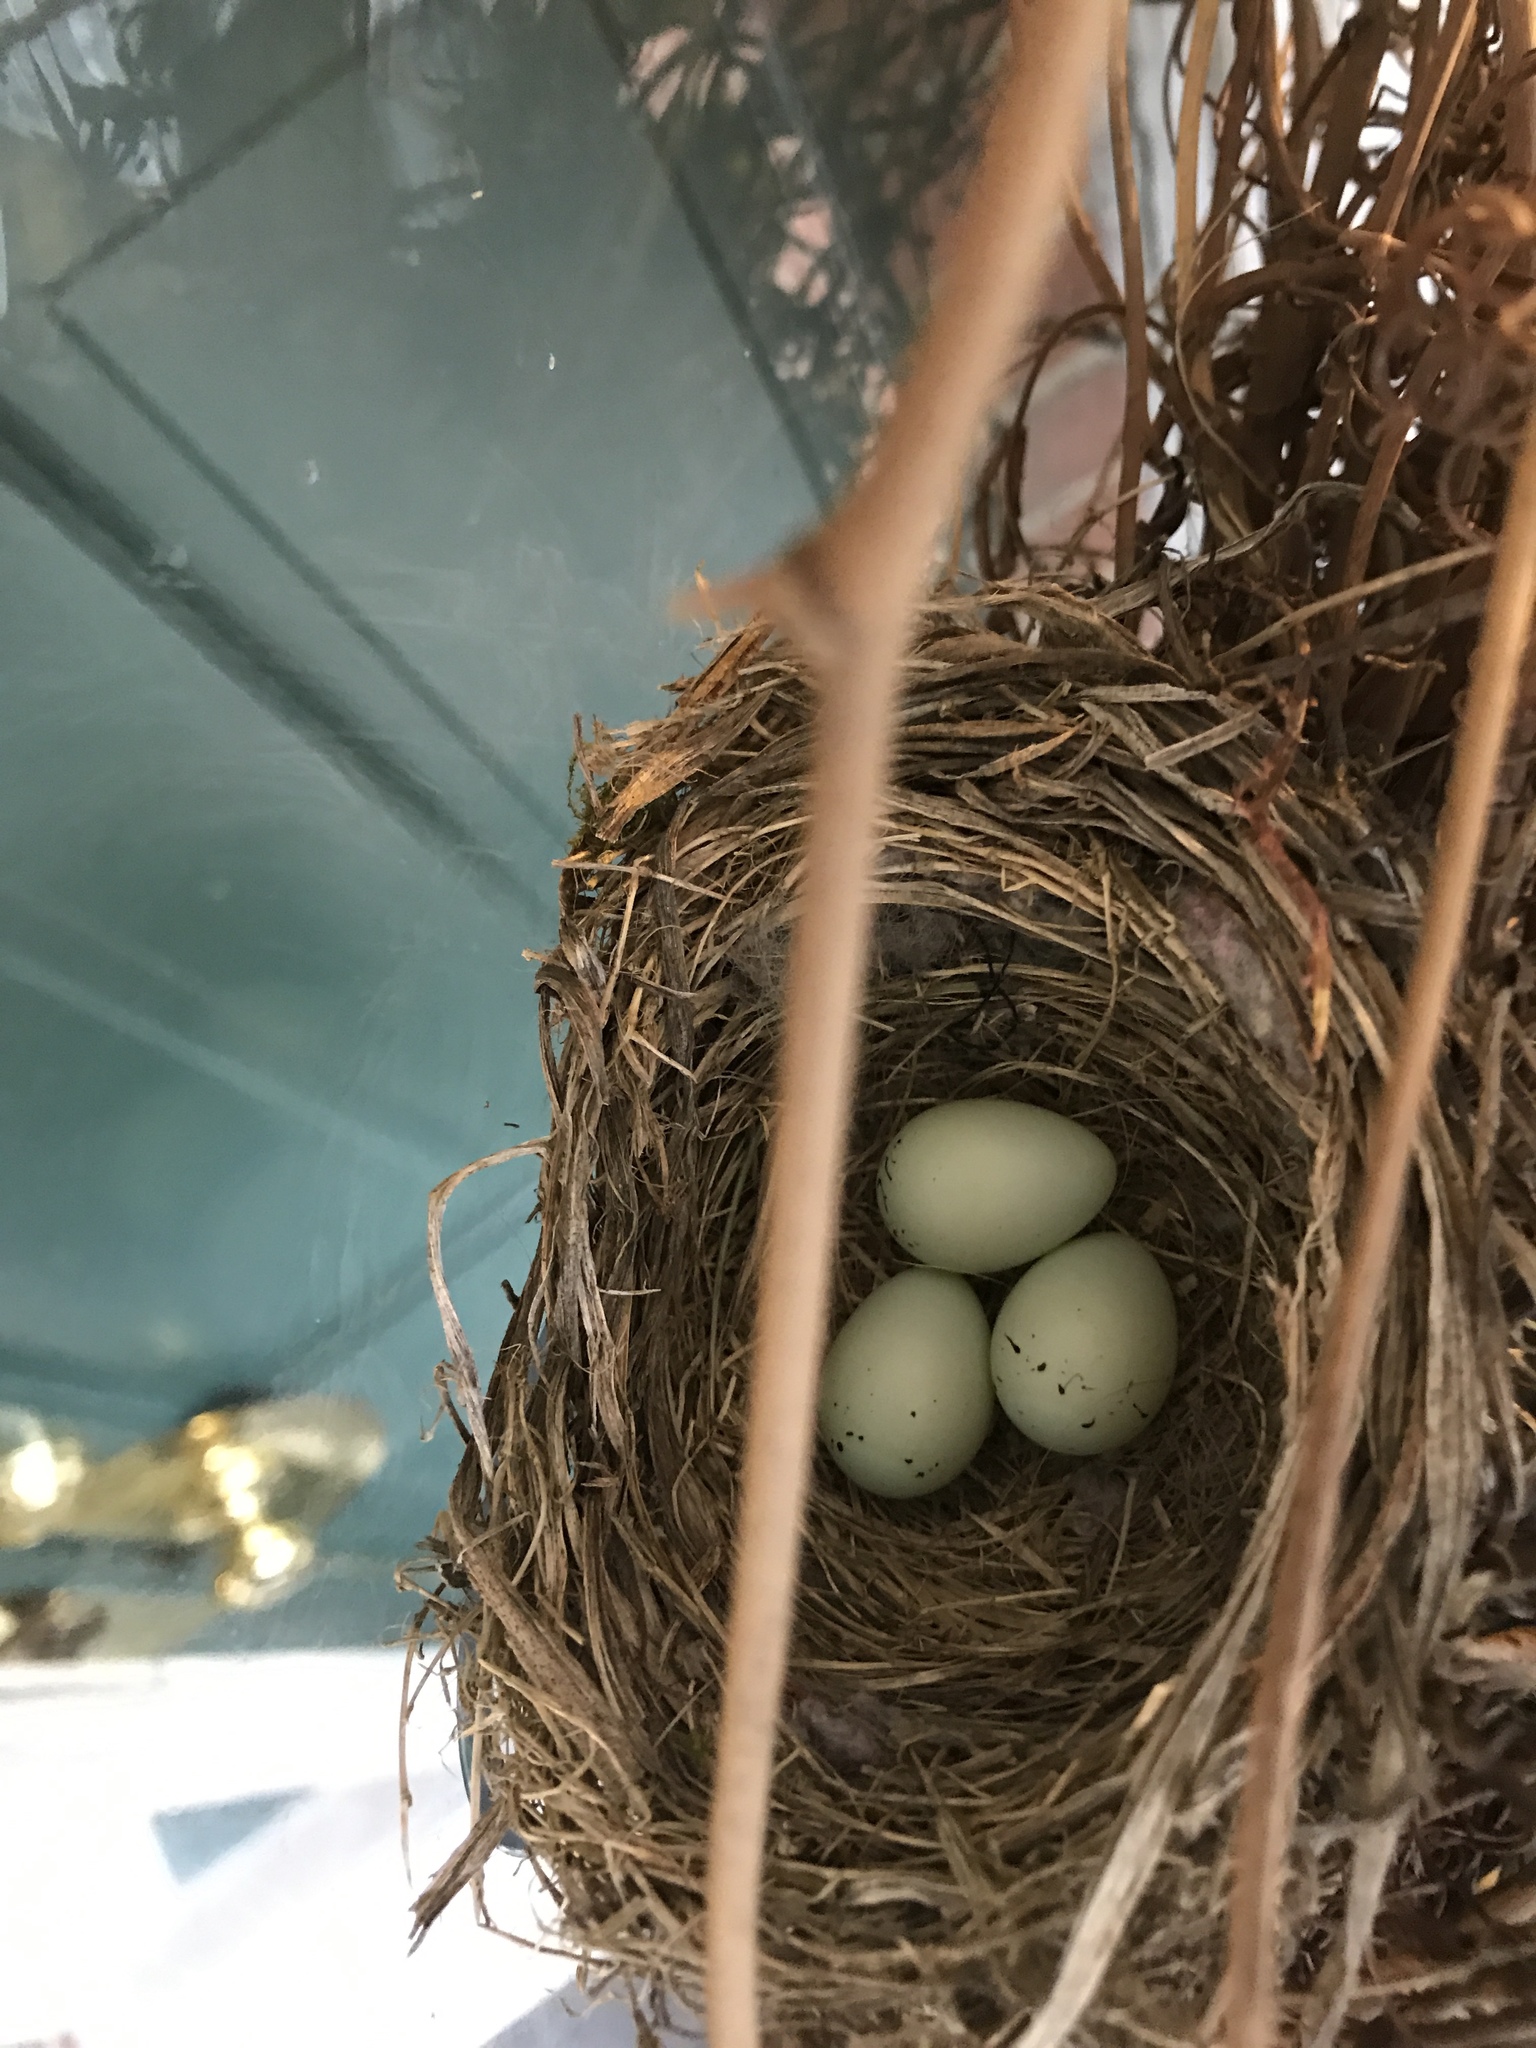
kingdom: Animalia
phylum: Chordata
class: Aves
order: Passeriformes
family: Fringillidae
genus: Haemorhous
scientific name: Haemorhous mexicanus
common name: House finch
